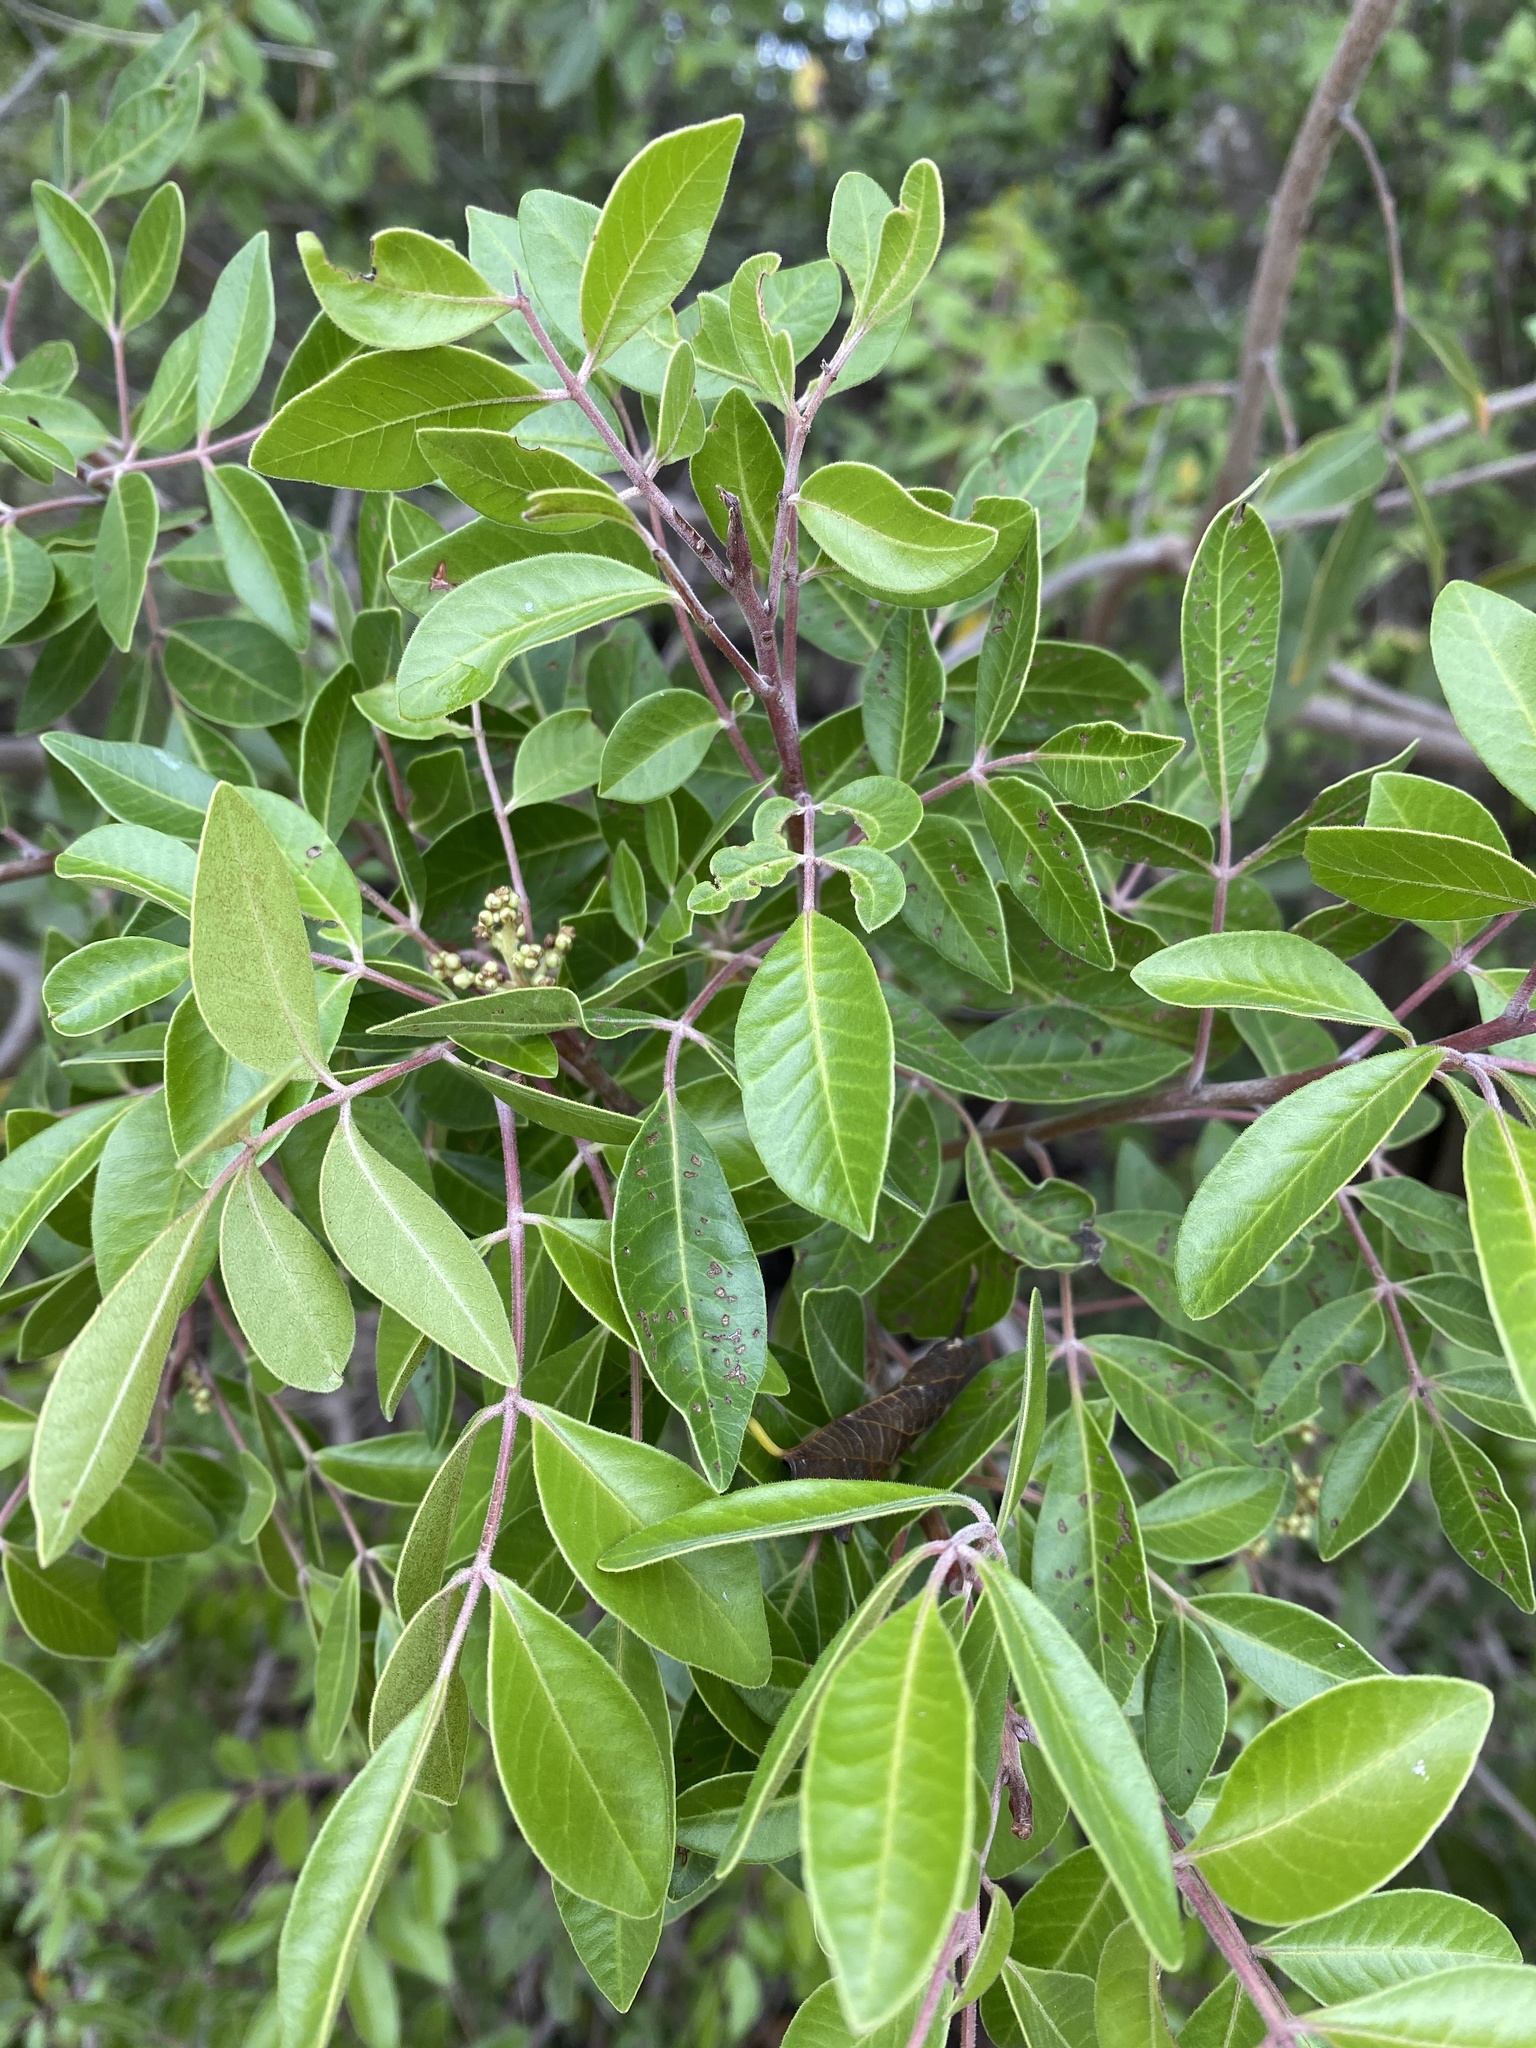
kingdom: Plantae
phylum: Tracheophyta
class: Magnoliopsida
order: Sapindales
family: Anacardiaceae
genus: Rhus
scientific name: Rhus virens
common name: Evergreen sumac
